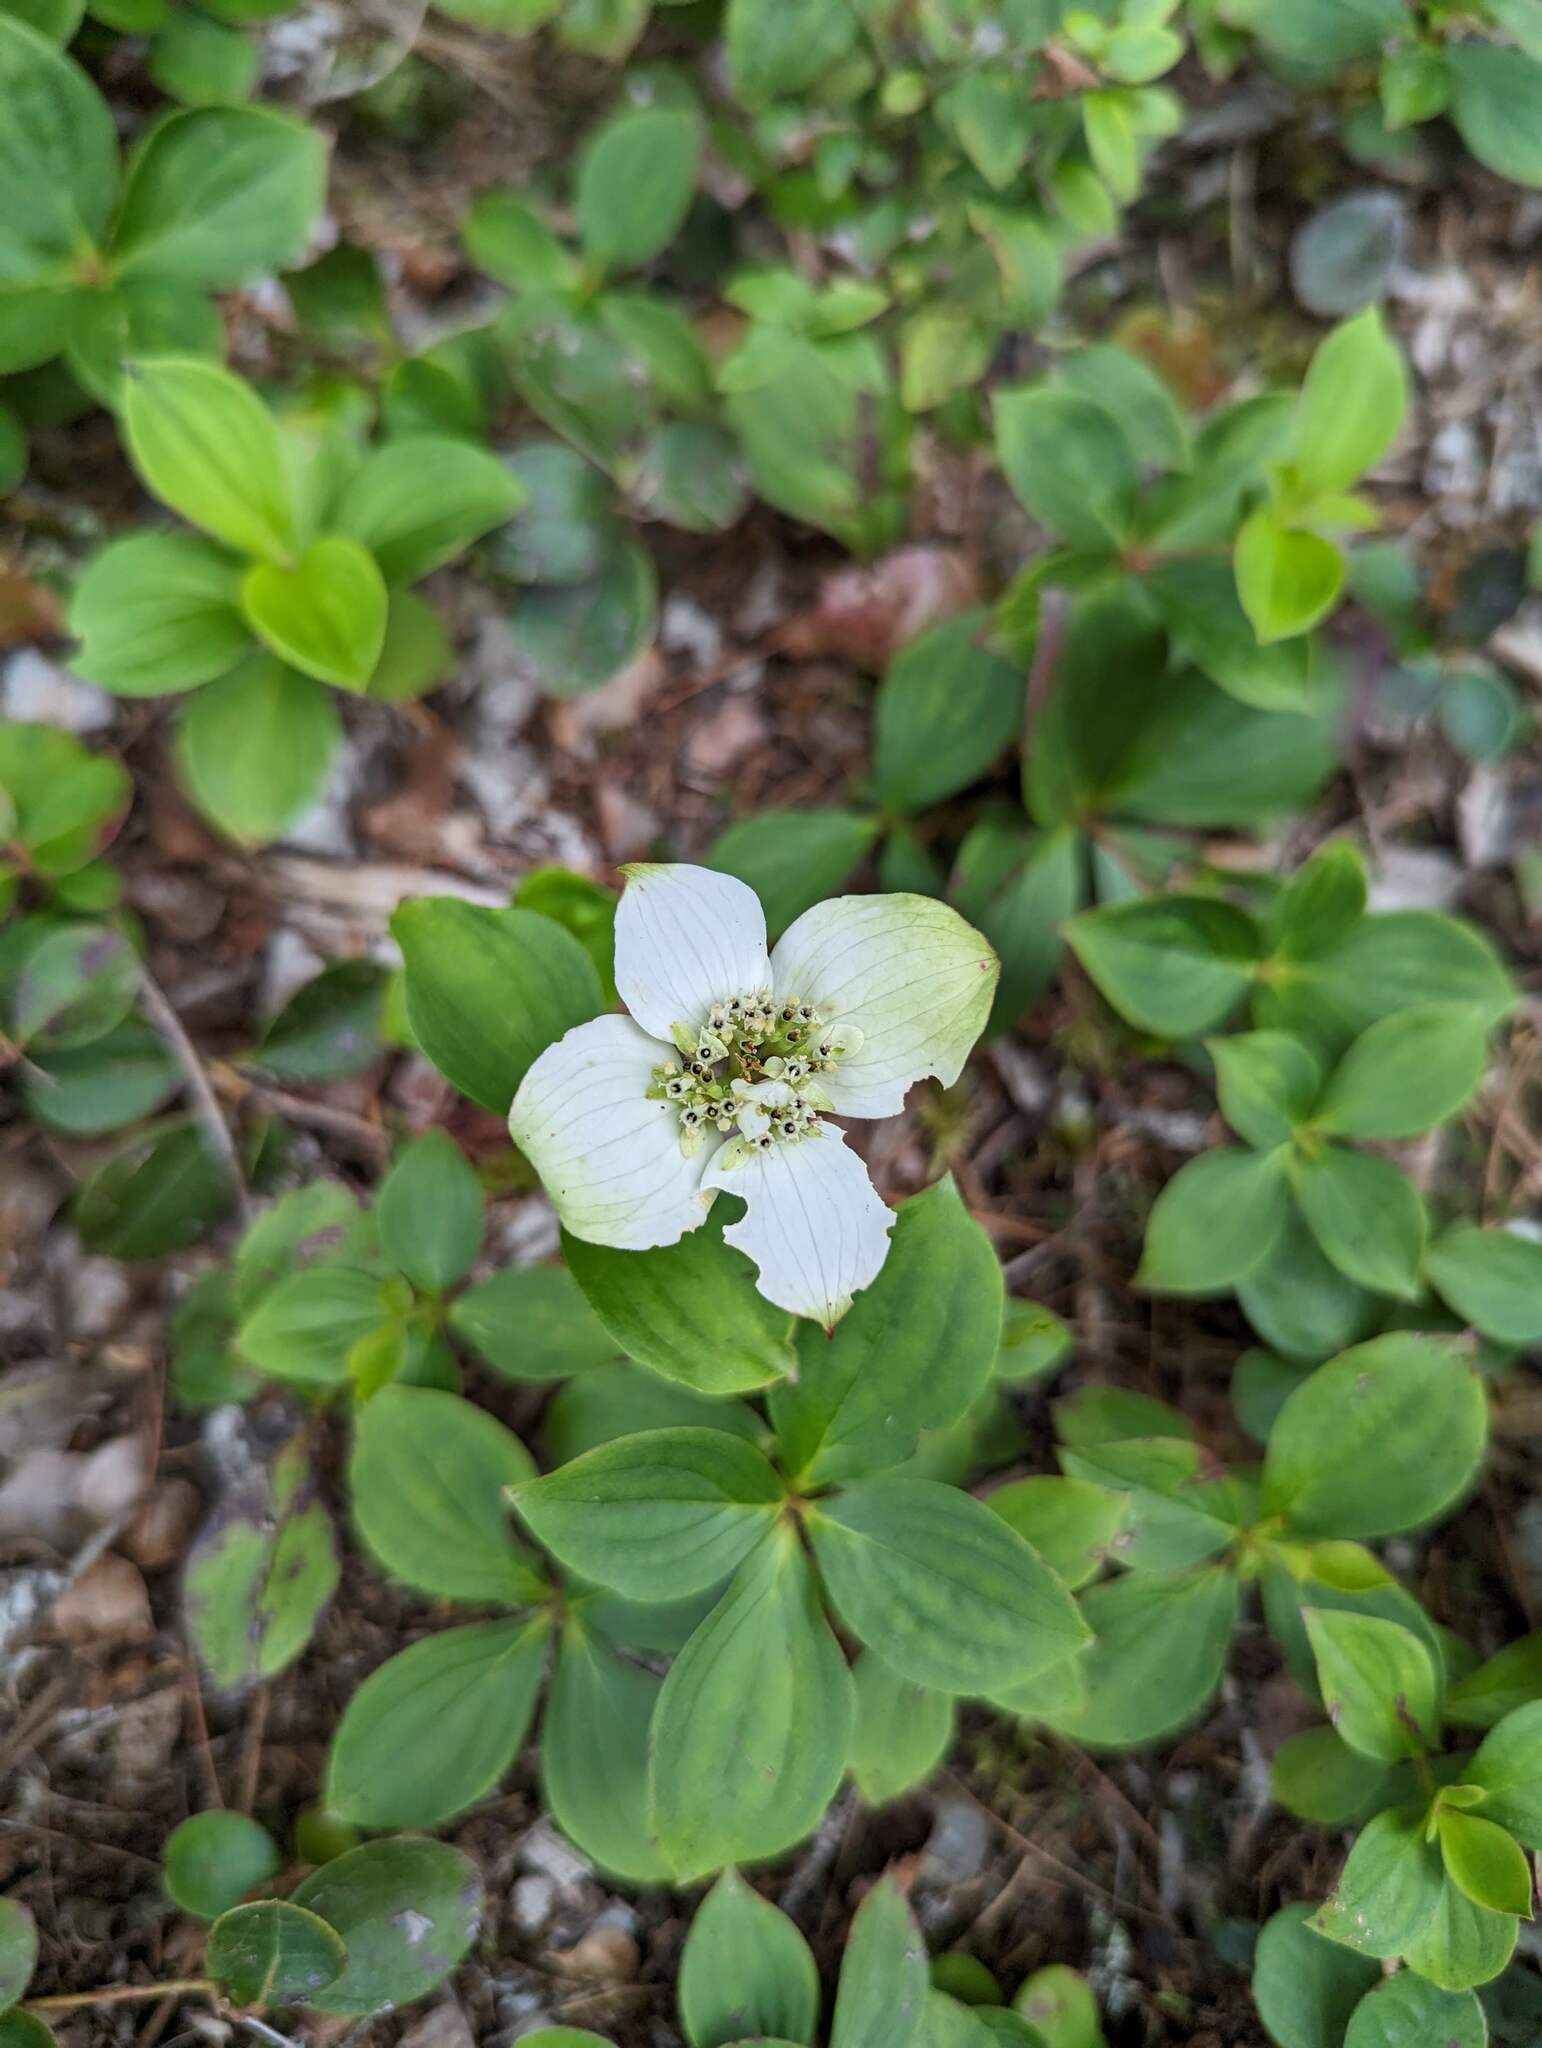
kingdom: Plantae
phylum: Tracheophyta
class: Magnoliopsida
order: Cornales
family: Cornaceae
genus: Cornus
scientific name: Cornus canadensis
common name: Creeping dogwood
